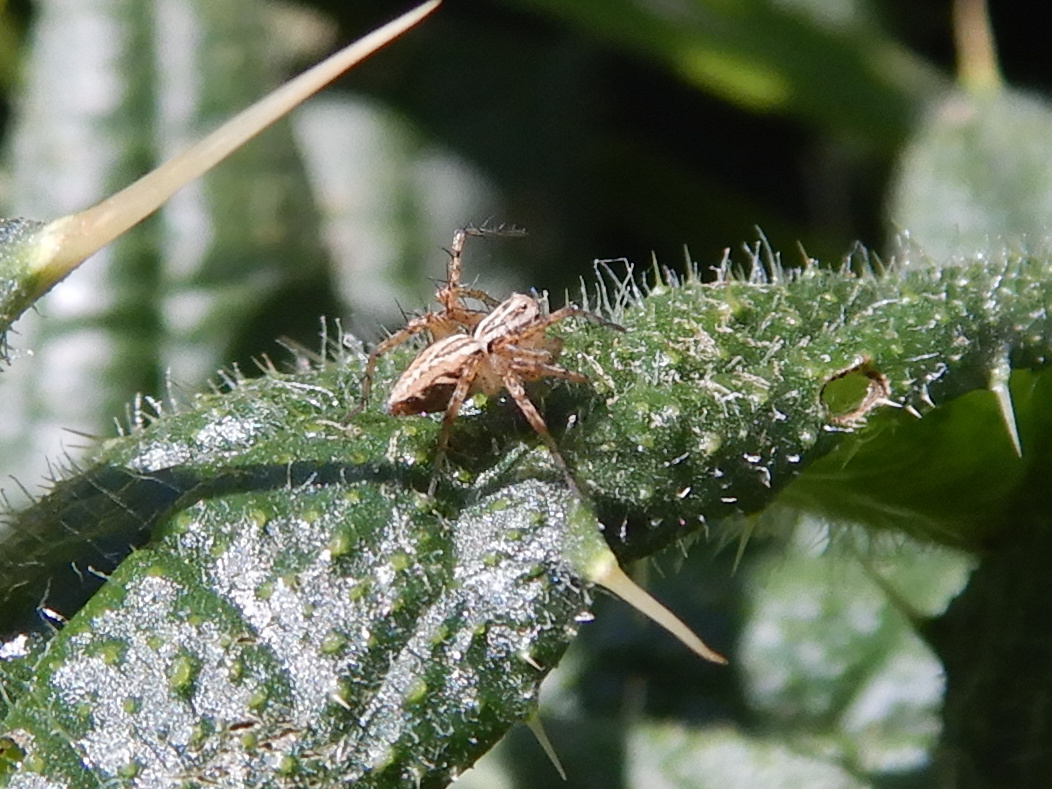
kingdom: Animalia
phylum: Arthropoda
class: Arachnida
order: Araneae
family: Oxyopidae
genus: Oxyopes
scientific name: Oxyopes gracilipes
